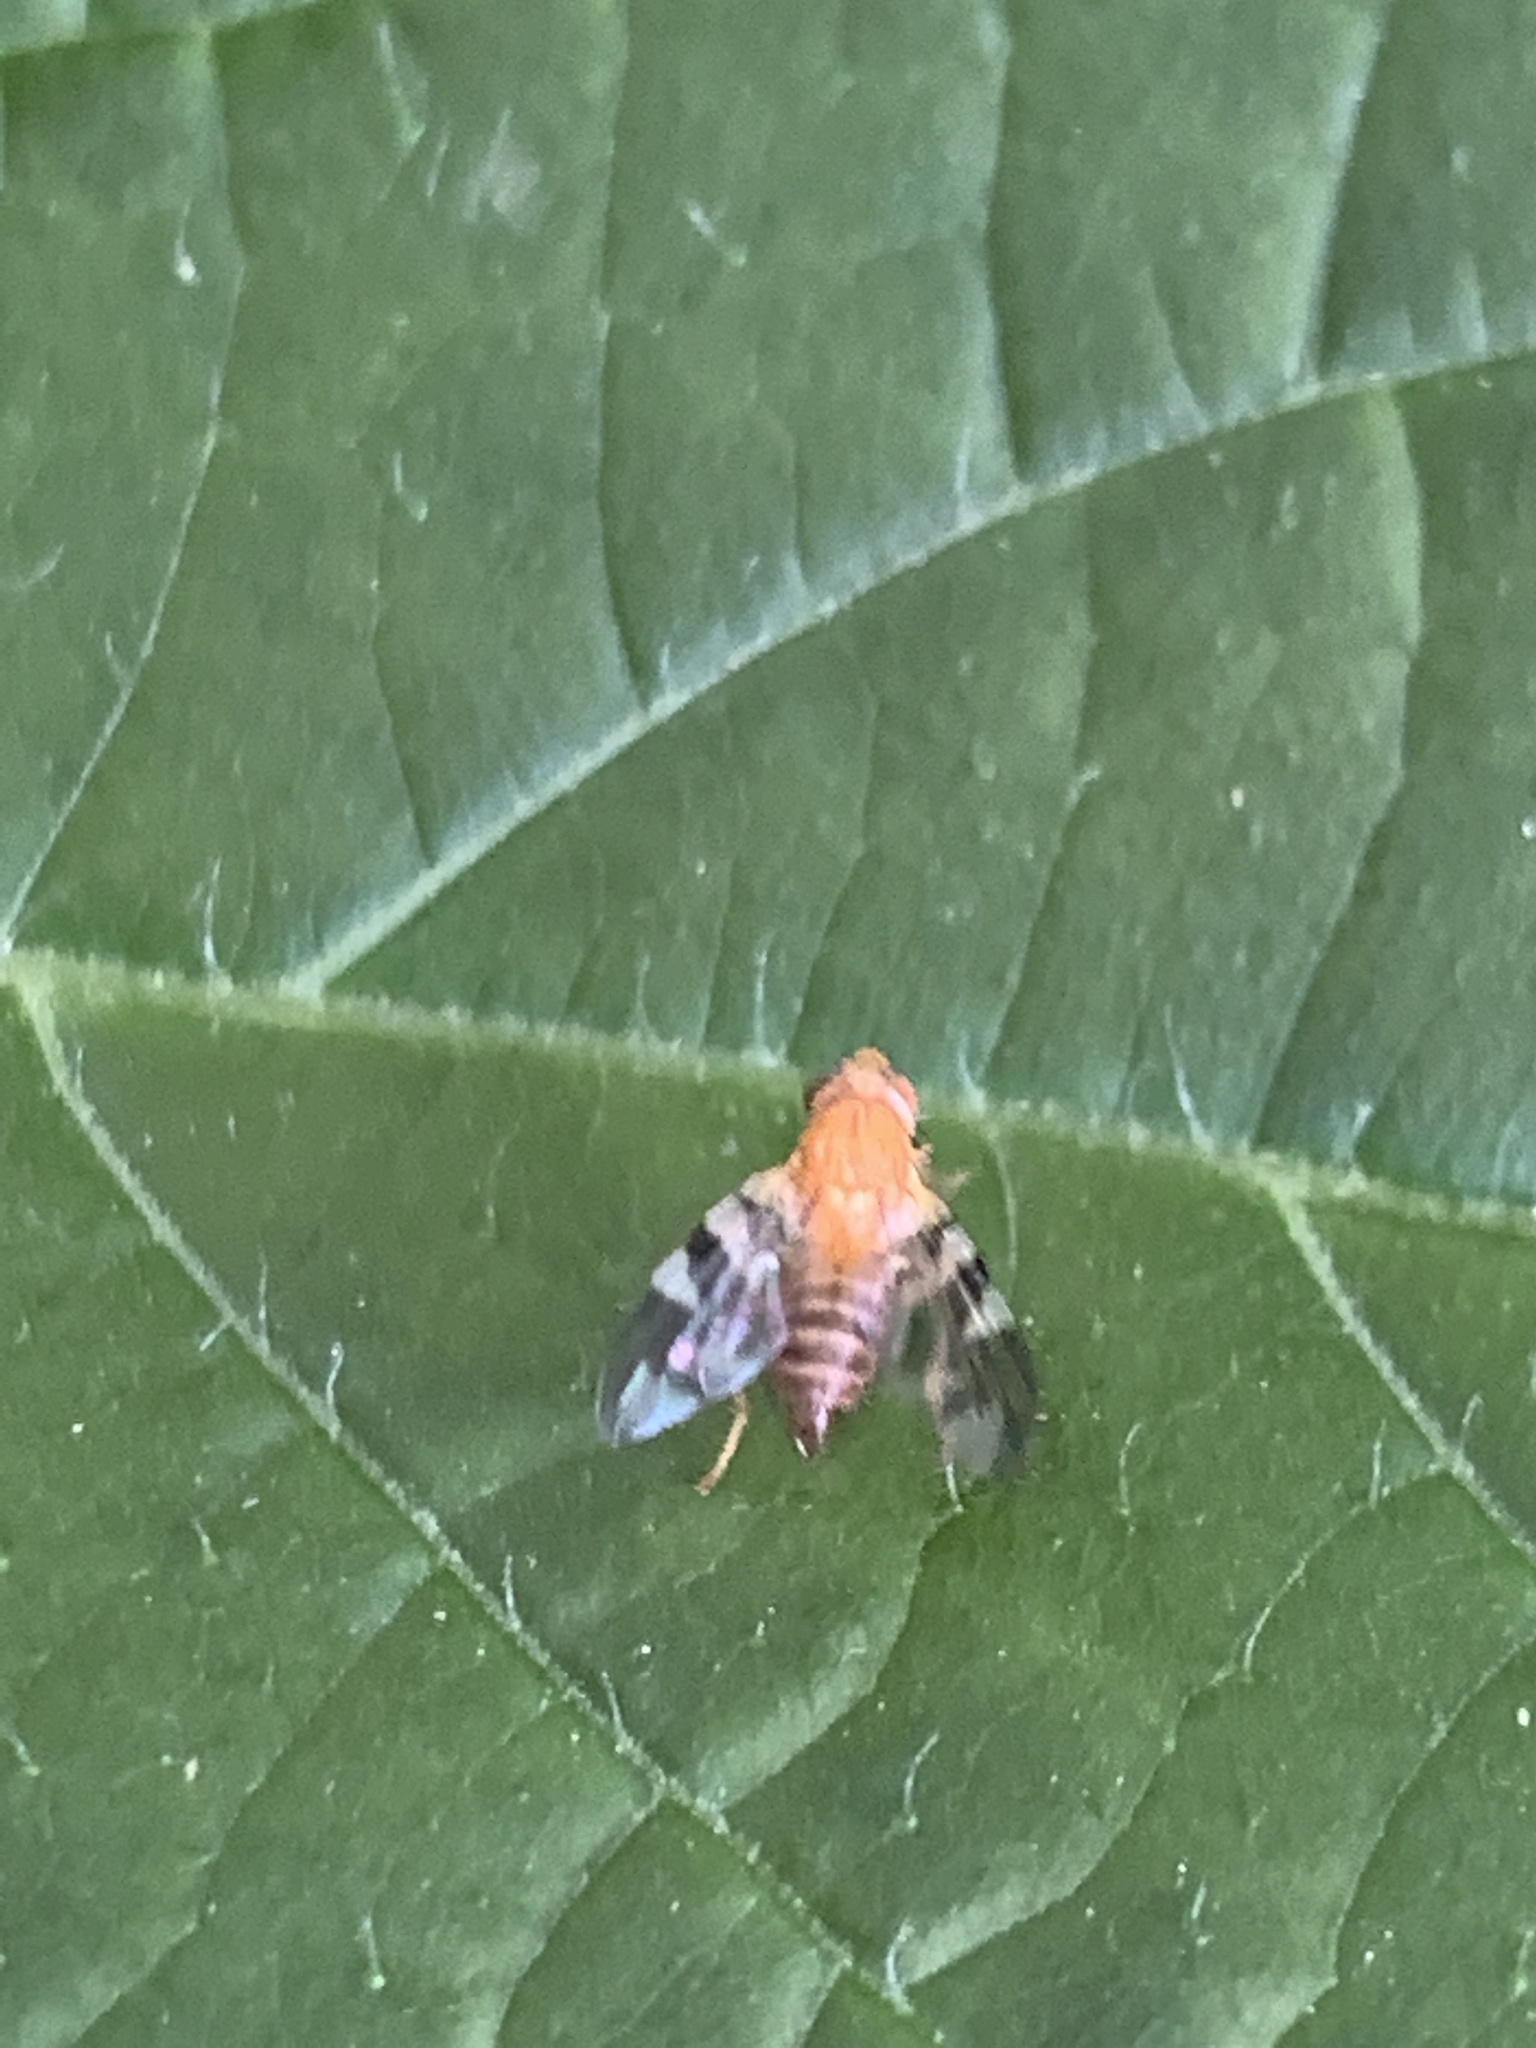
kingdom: Animalia
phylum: Arthropoda
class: Insecta
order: Diptera
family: Tephritidae
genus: Rhagoletis
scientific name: Rhagoletis suavis
